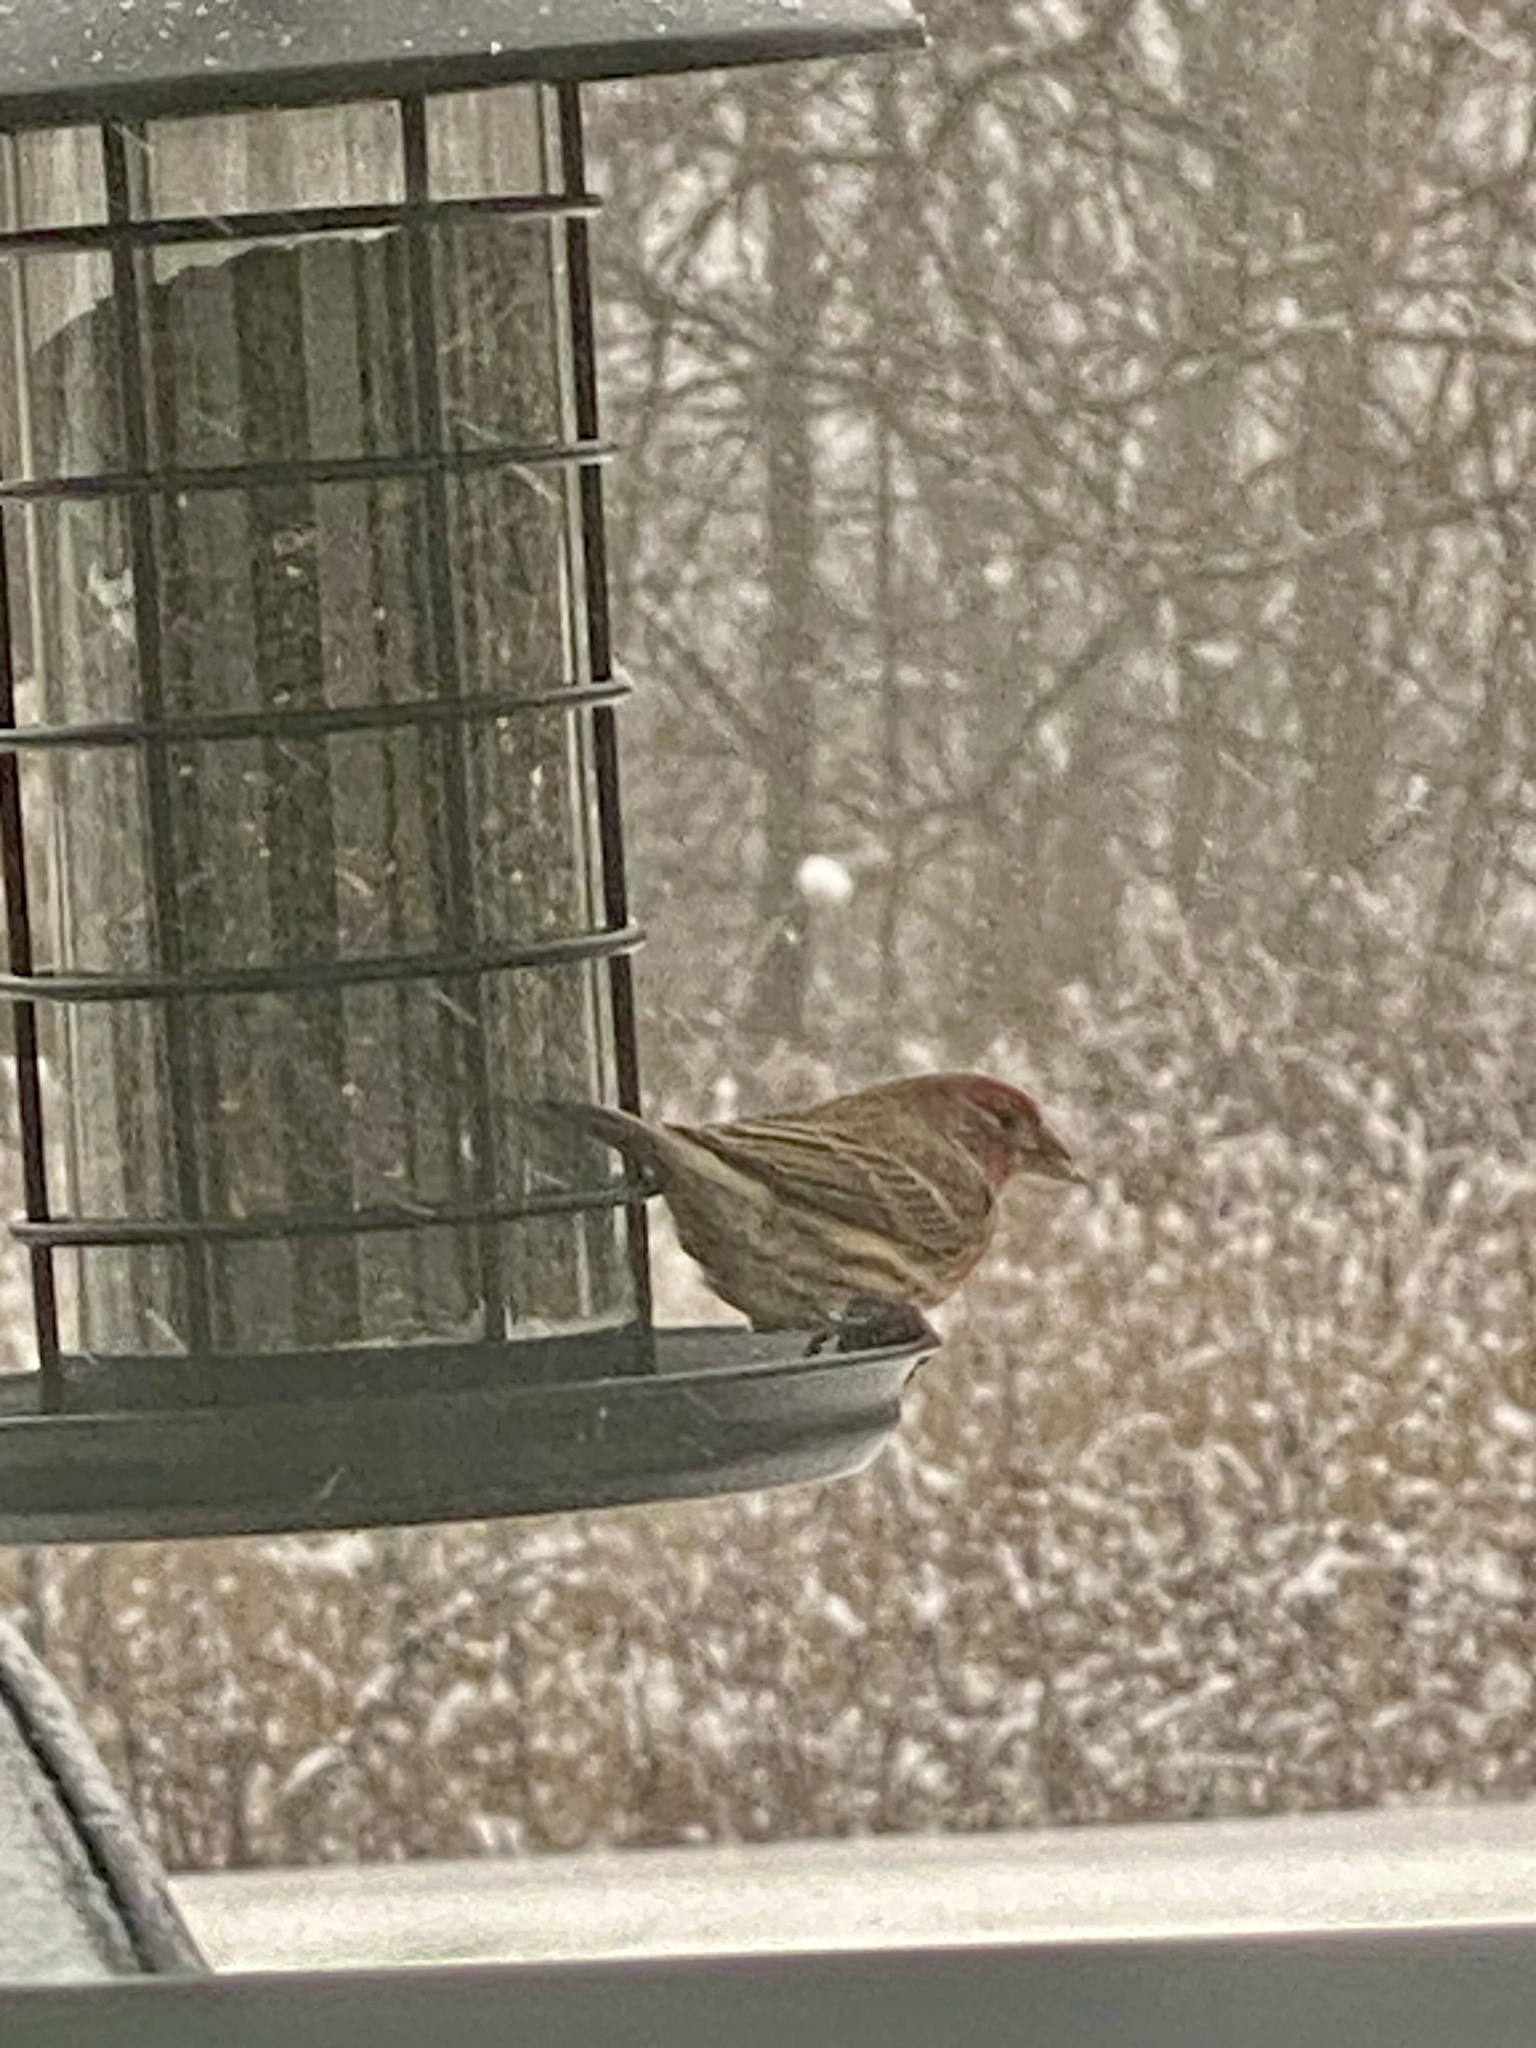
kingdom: Animalia
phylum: Chordata
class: Aves
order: Passeriformes
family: Fringillidae
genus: Haemorhous
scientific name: Haemorhous mexicanus
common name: House finch
